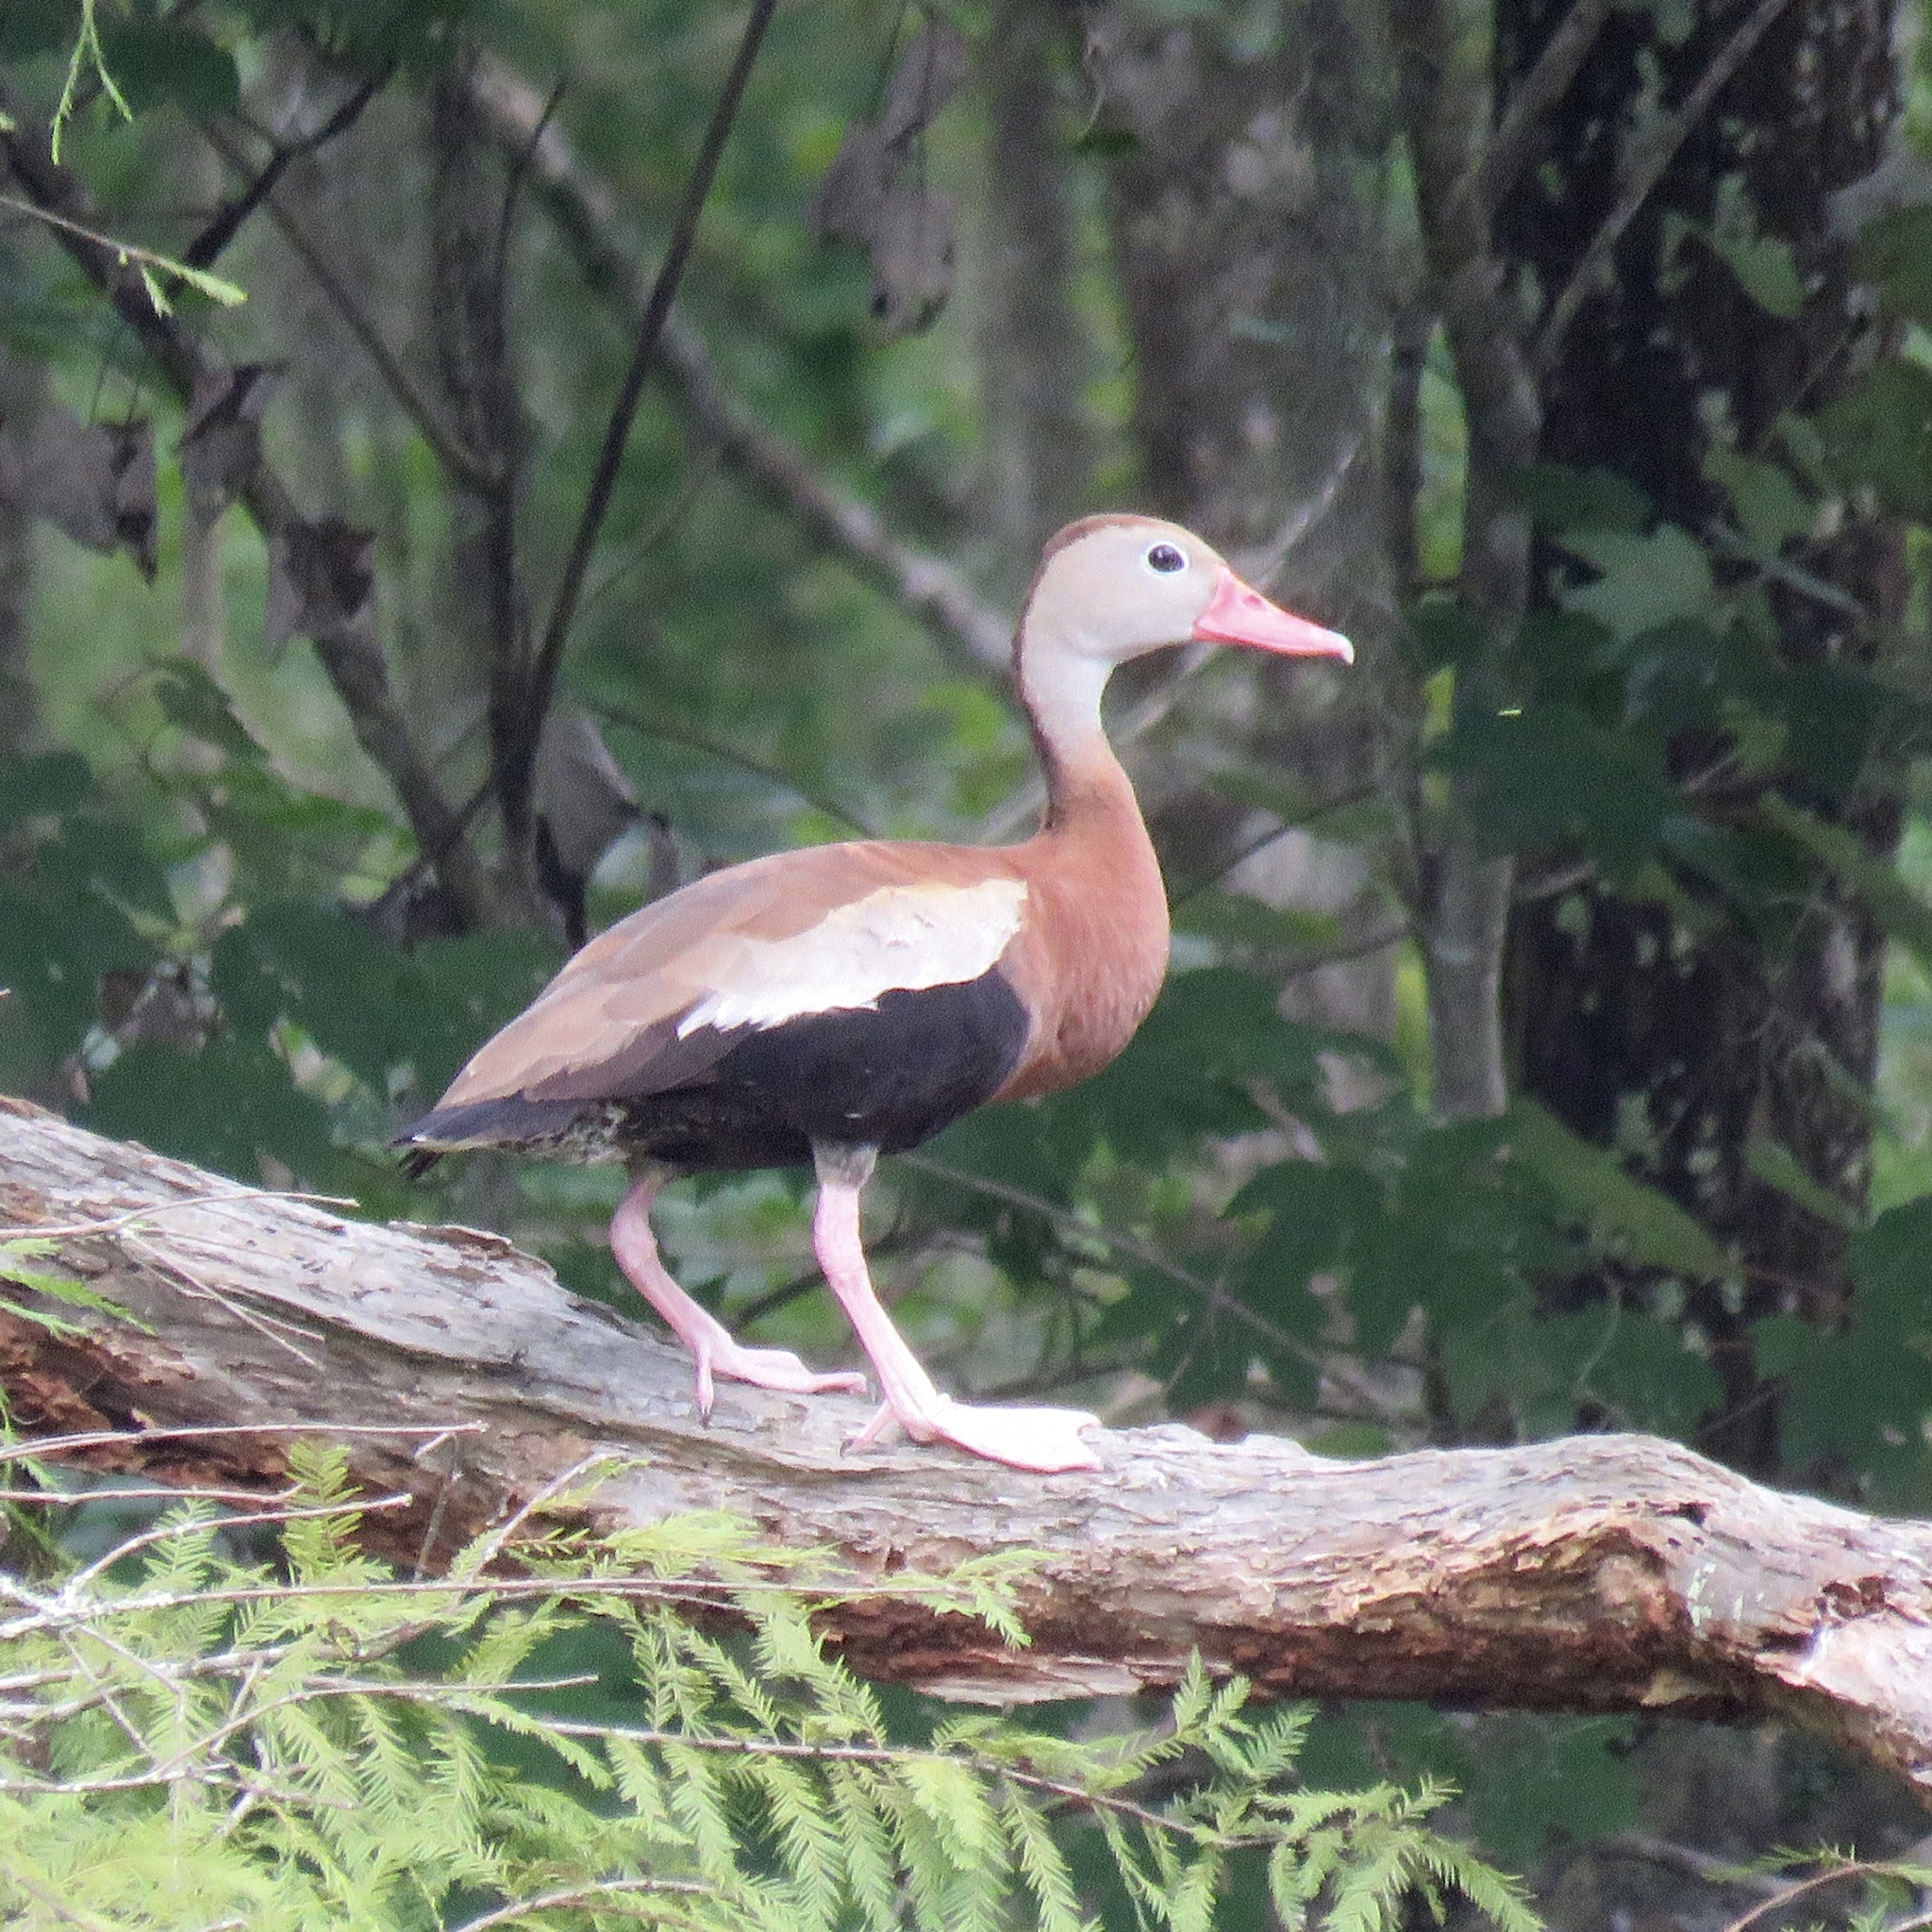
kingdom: Animalia
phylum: Chordata
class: Aves
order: Anseriformes
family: Anatidae
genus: Dendrocygna
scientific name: Dendrocygna autumnalis
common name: Black-bellied whistling duck
